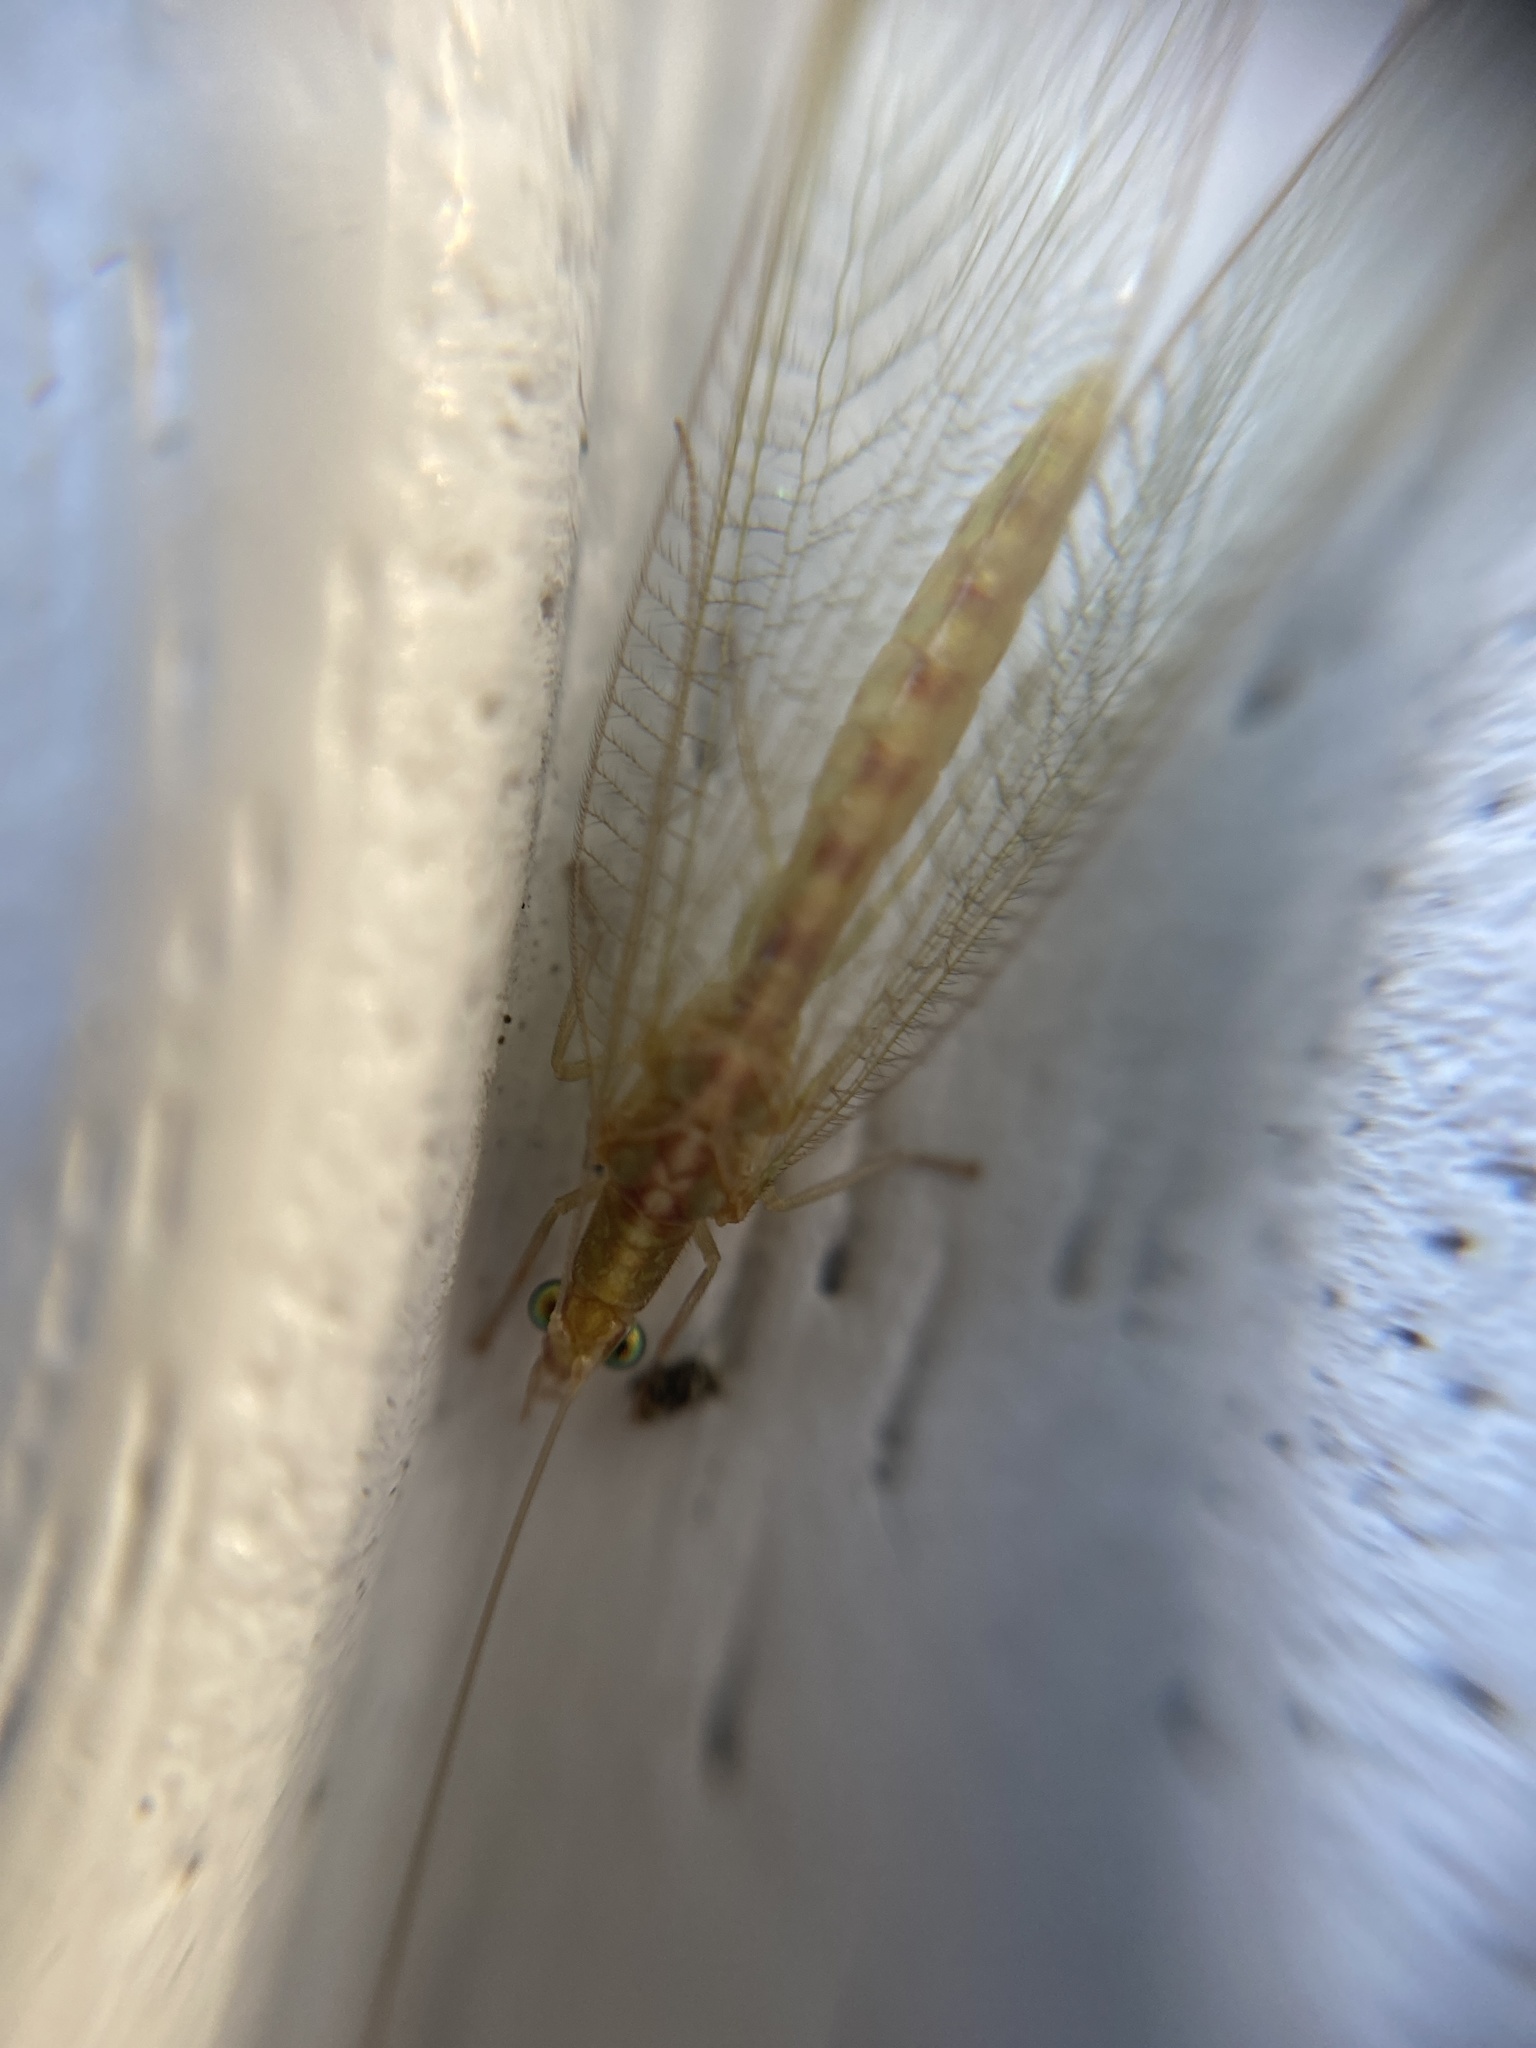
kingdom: Animalia
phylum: Arthropoda
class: Insecta
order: Neuroptera
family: Chrysopidae
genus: Chrysoperla
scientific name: Chrysoperla
